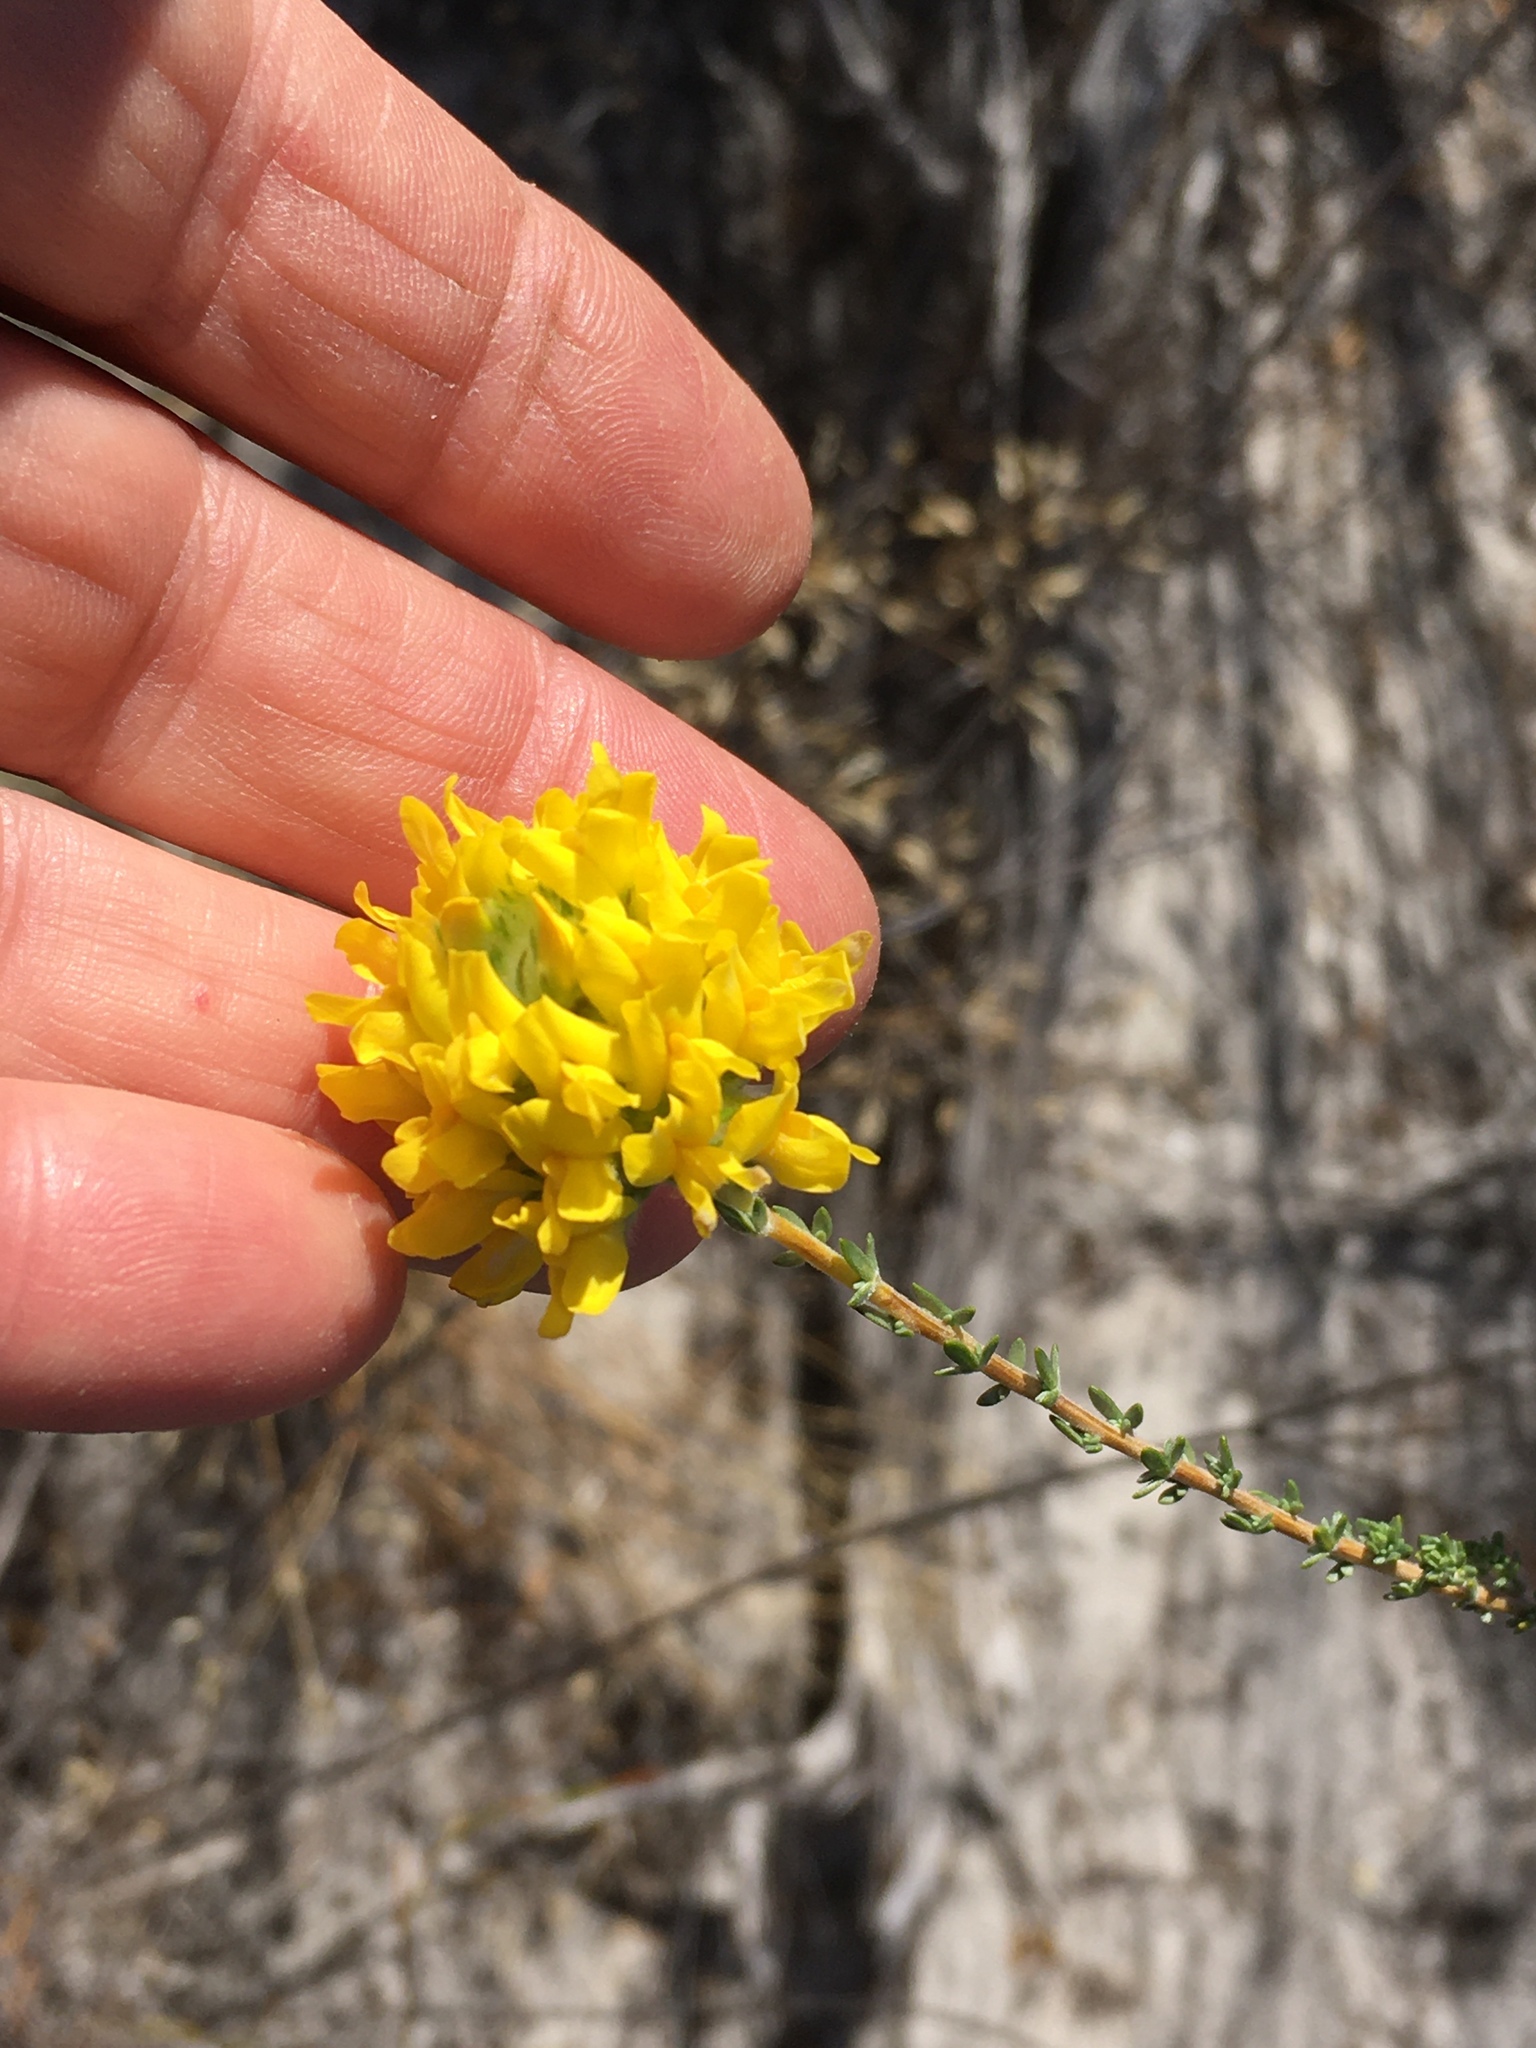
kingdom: Plantae
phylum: Tracheophyta
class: Magnoliopsida
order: Fabales
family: Fabaceae
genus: Aspalathus
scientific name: Aspalathus acocksii
